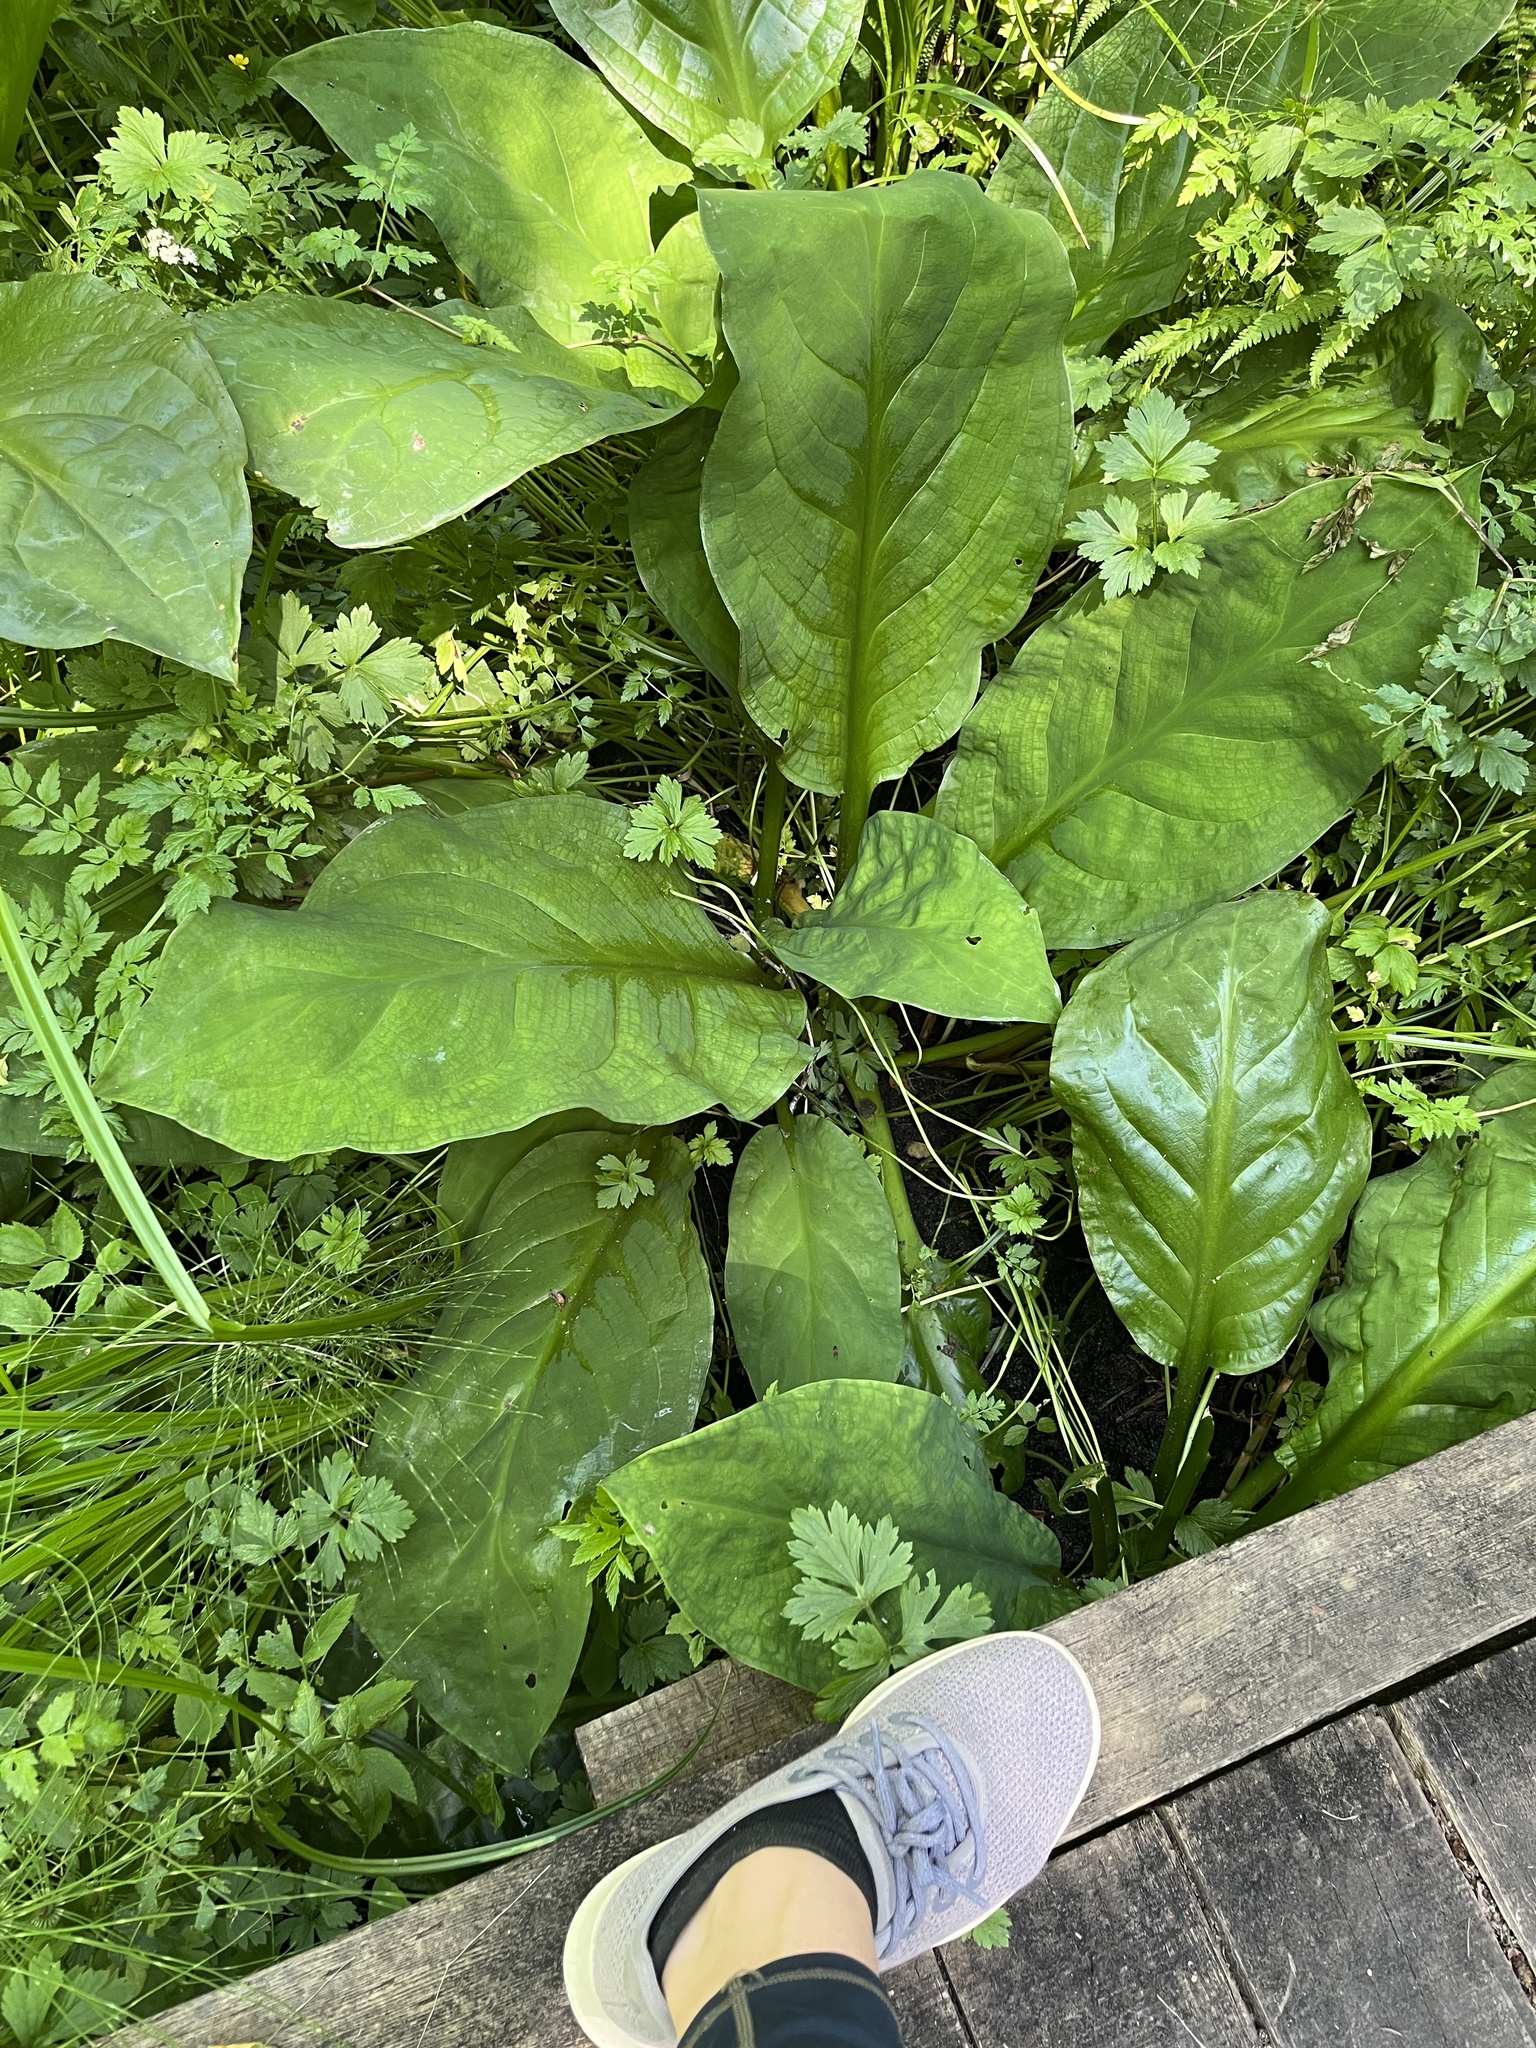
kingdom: Plantae
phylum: Tracheophyta
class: Liliopsida
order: Alismatales
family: Araceae
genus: Lysichiton
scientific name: Lysichiton americanus
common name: American skunk cabbage
